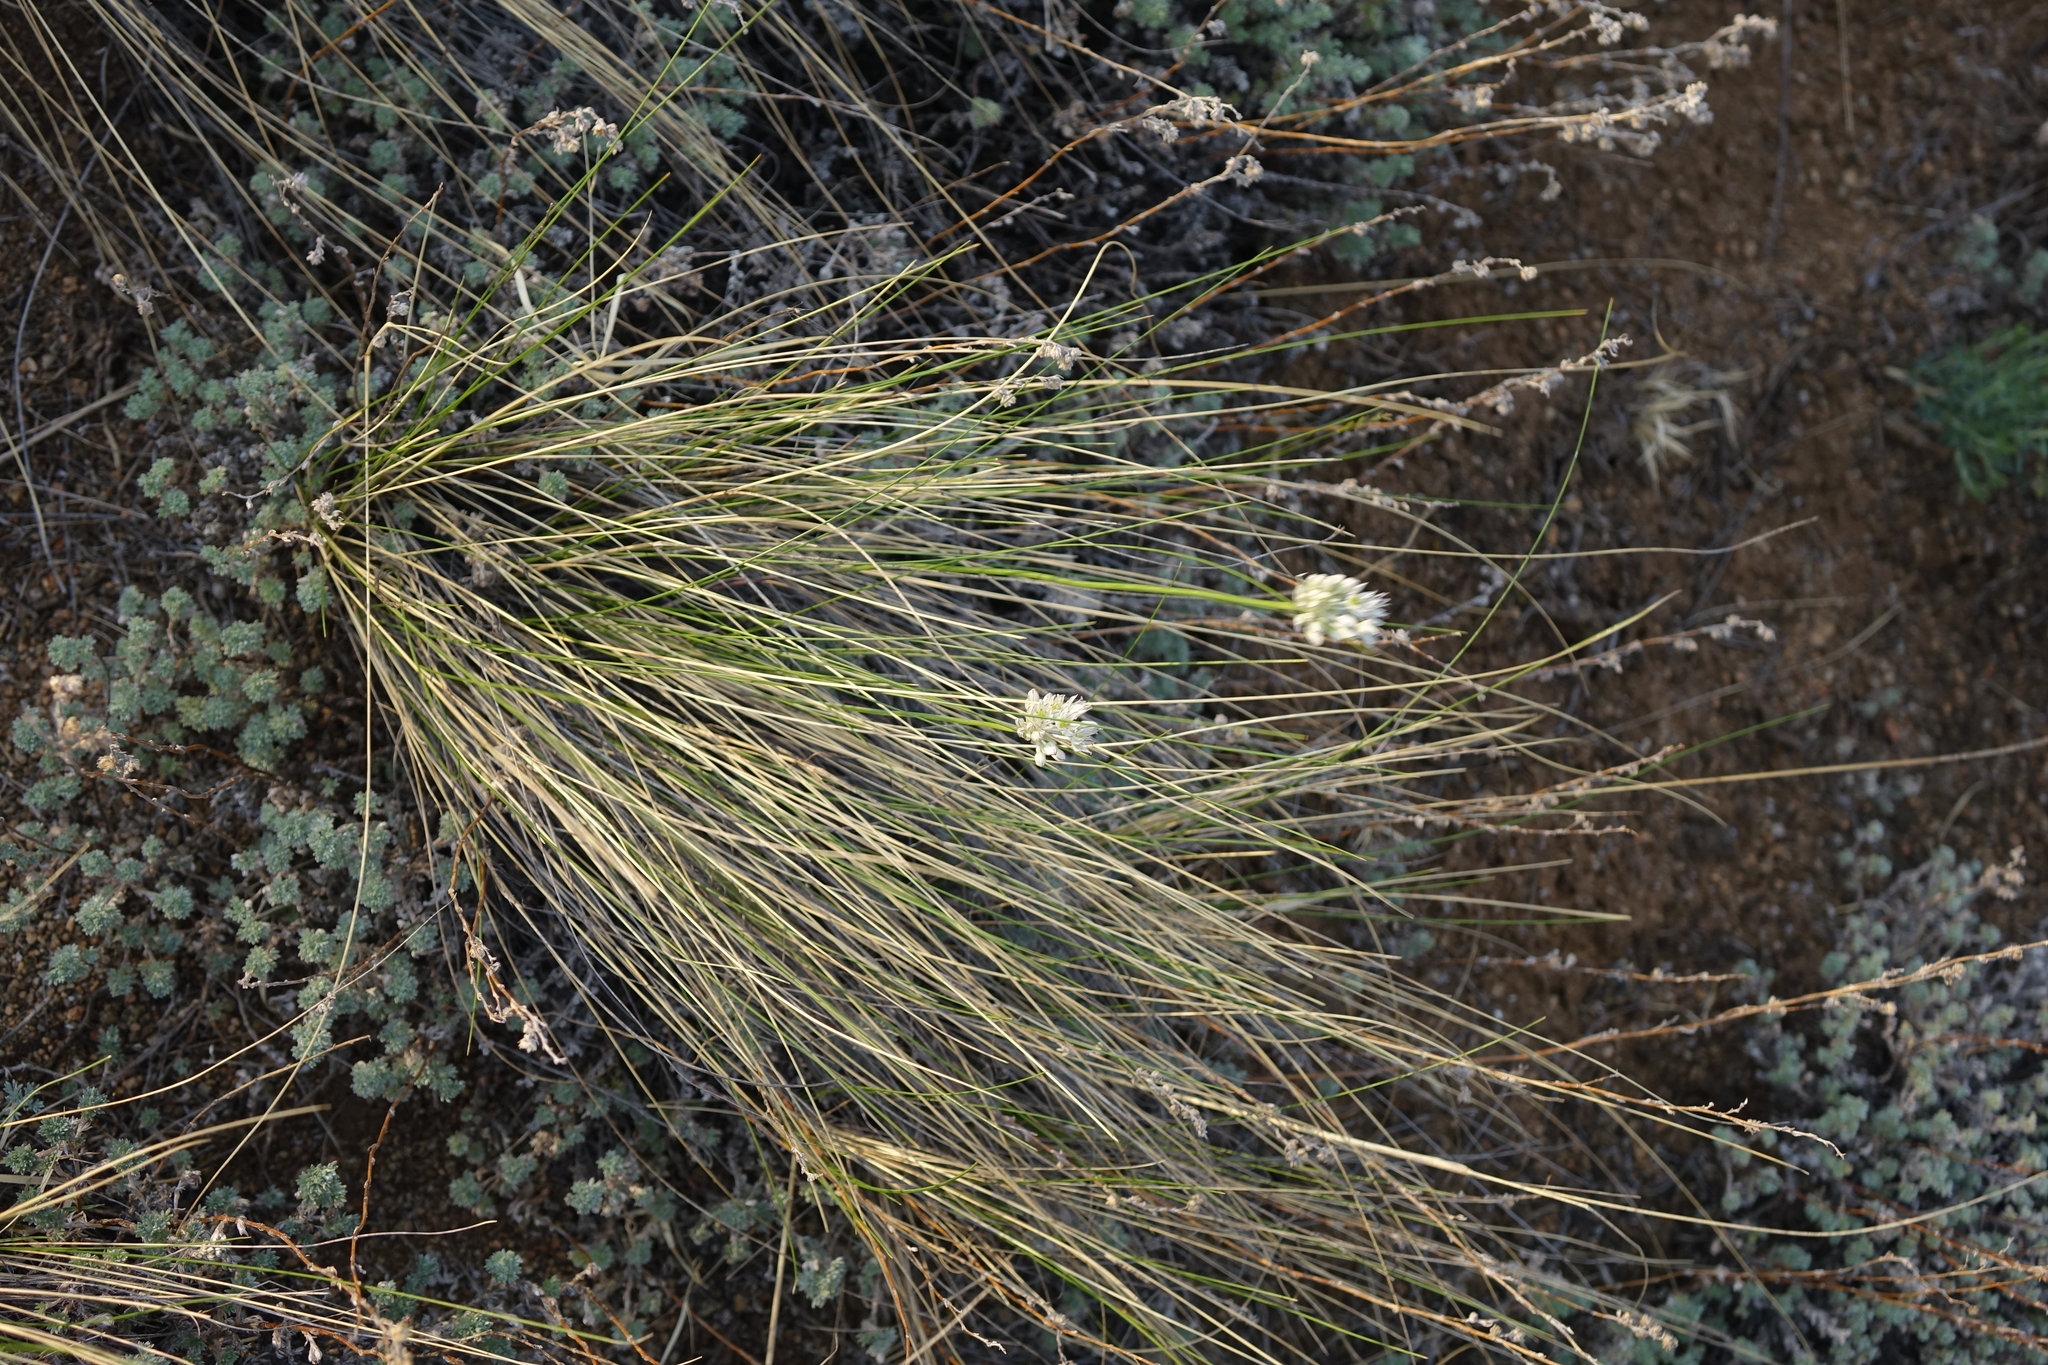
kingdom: Plantae
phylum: Tracheophyta
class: Liliopsida
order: Asparagales
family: Amaryllidaceae
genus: Allium
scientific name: Allium delicatulum
